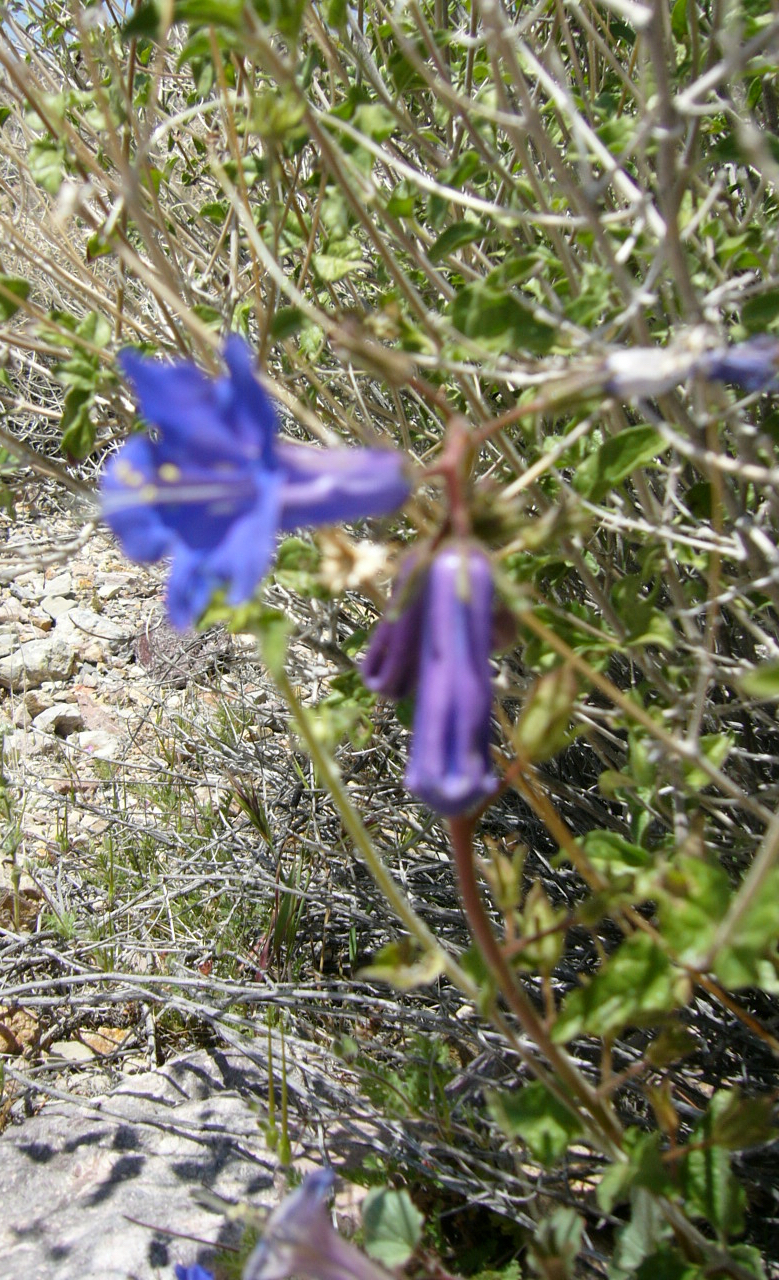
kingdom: Plantae
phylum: Tracheophyta
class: Magnoliopsida
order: Boraginales
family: Hydrophyllaceae
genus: Phacelia
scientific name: Phacelia campanularia
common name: California bluebell
